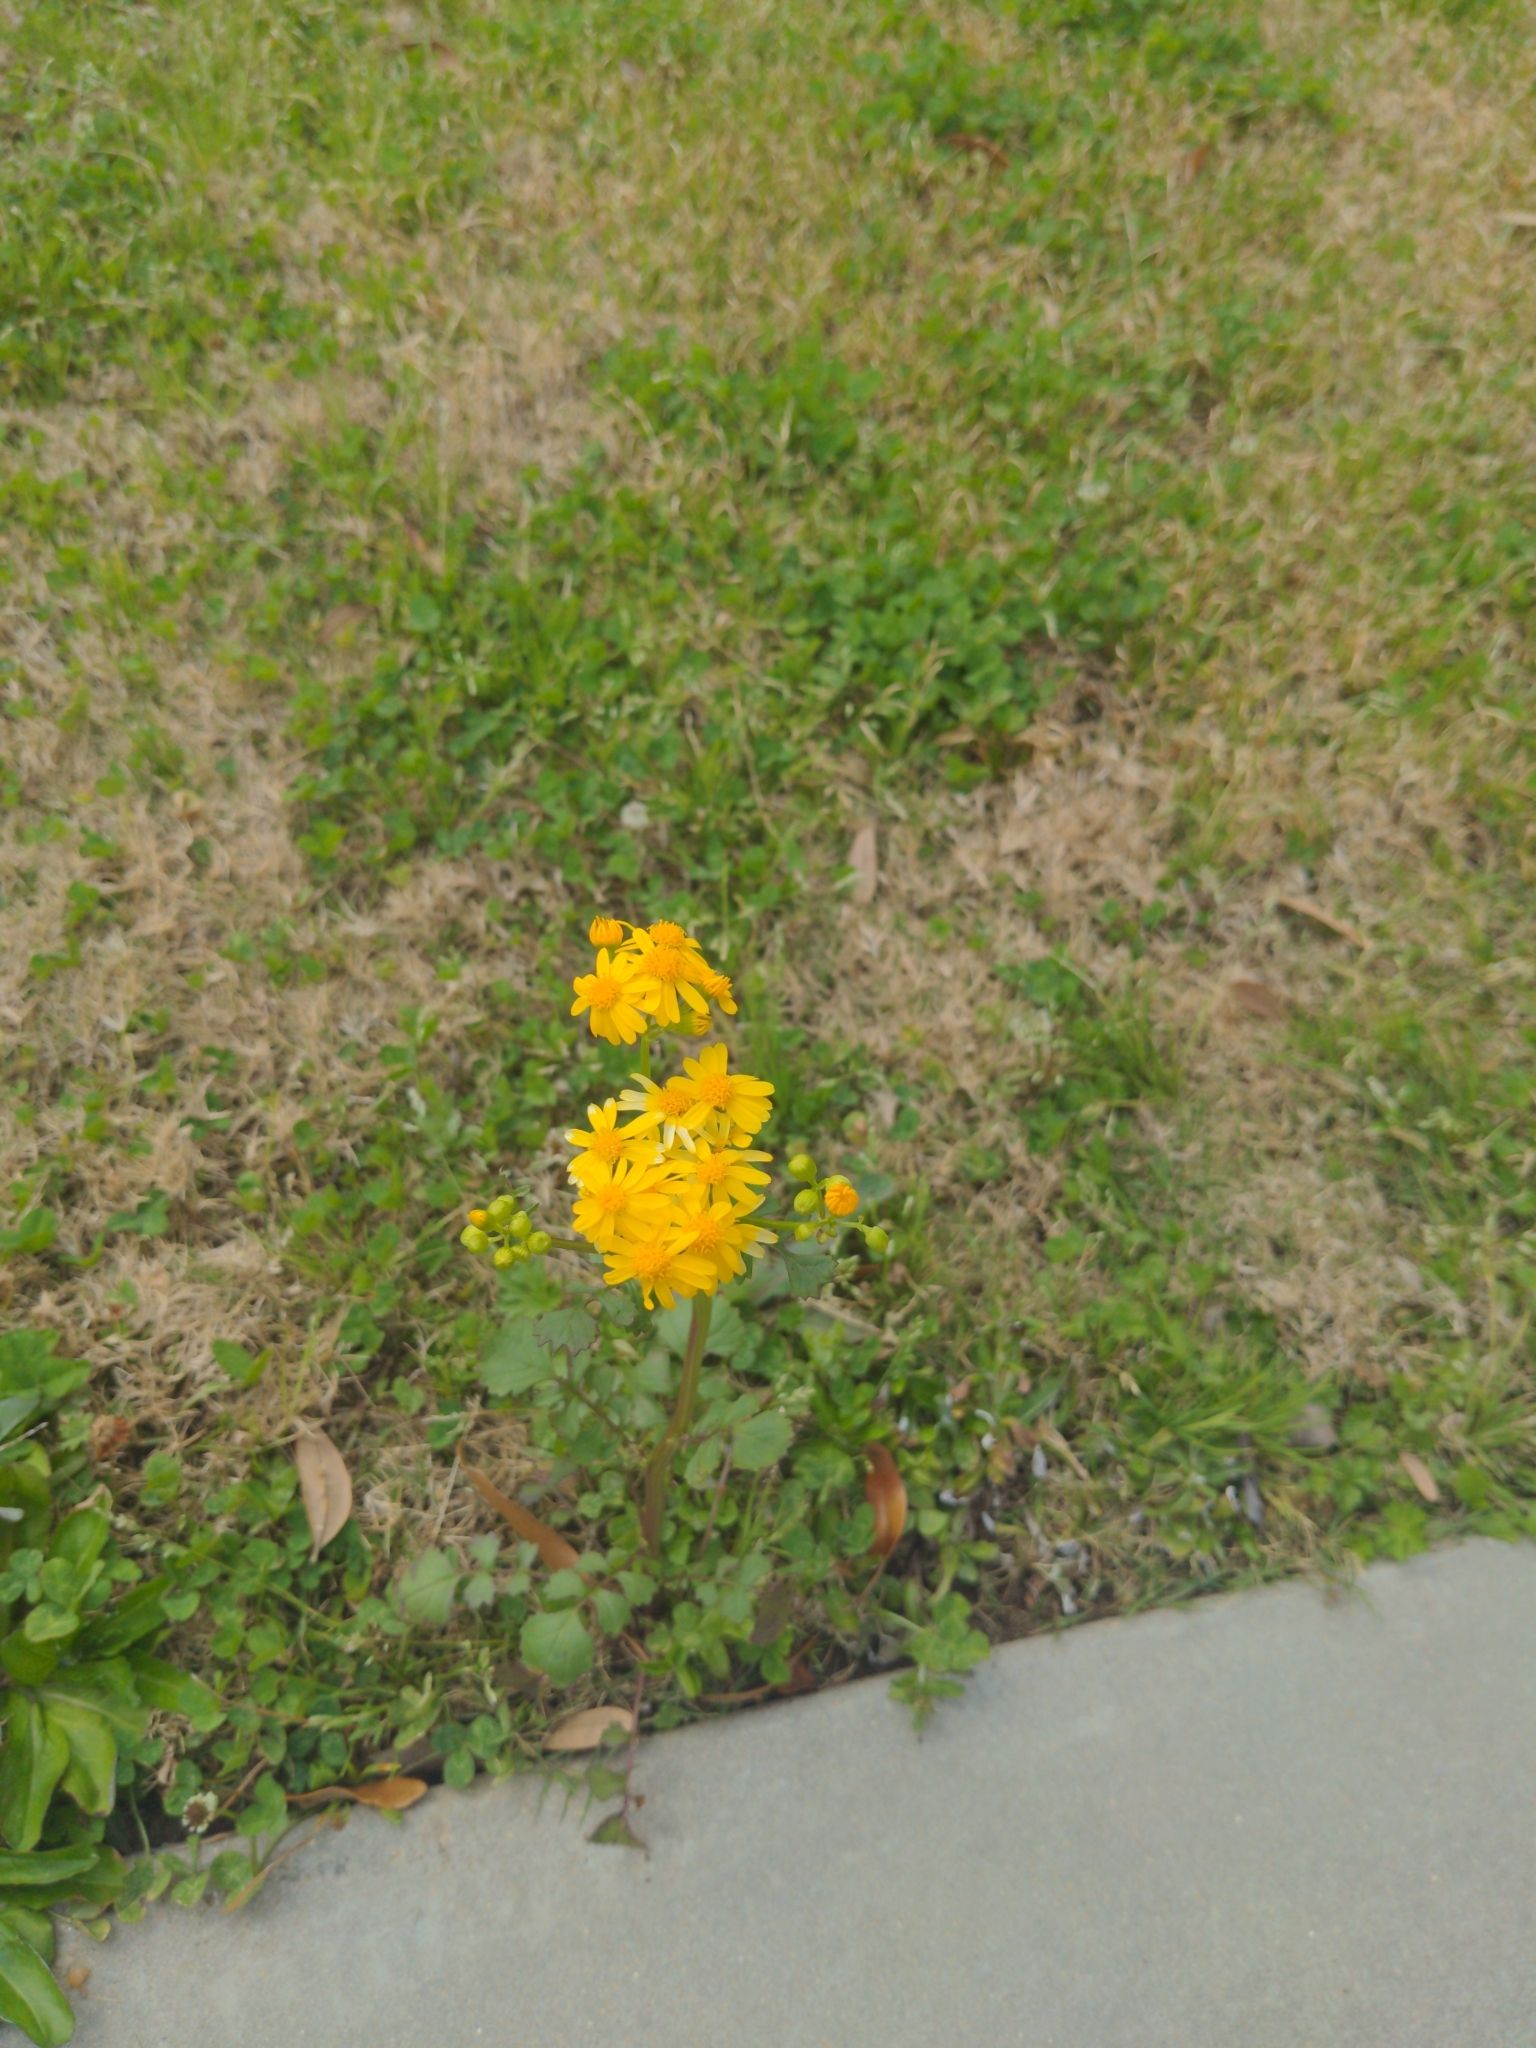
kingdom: Plantae
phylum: Tracheophyta
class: Magnoliopsida
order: Asterales
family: Asteraceae
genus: Packera
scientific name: Packera glabella
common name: Butterweed
